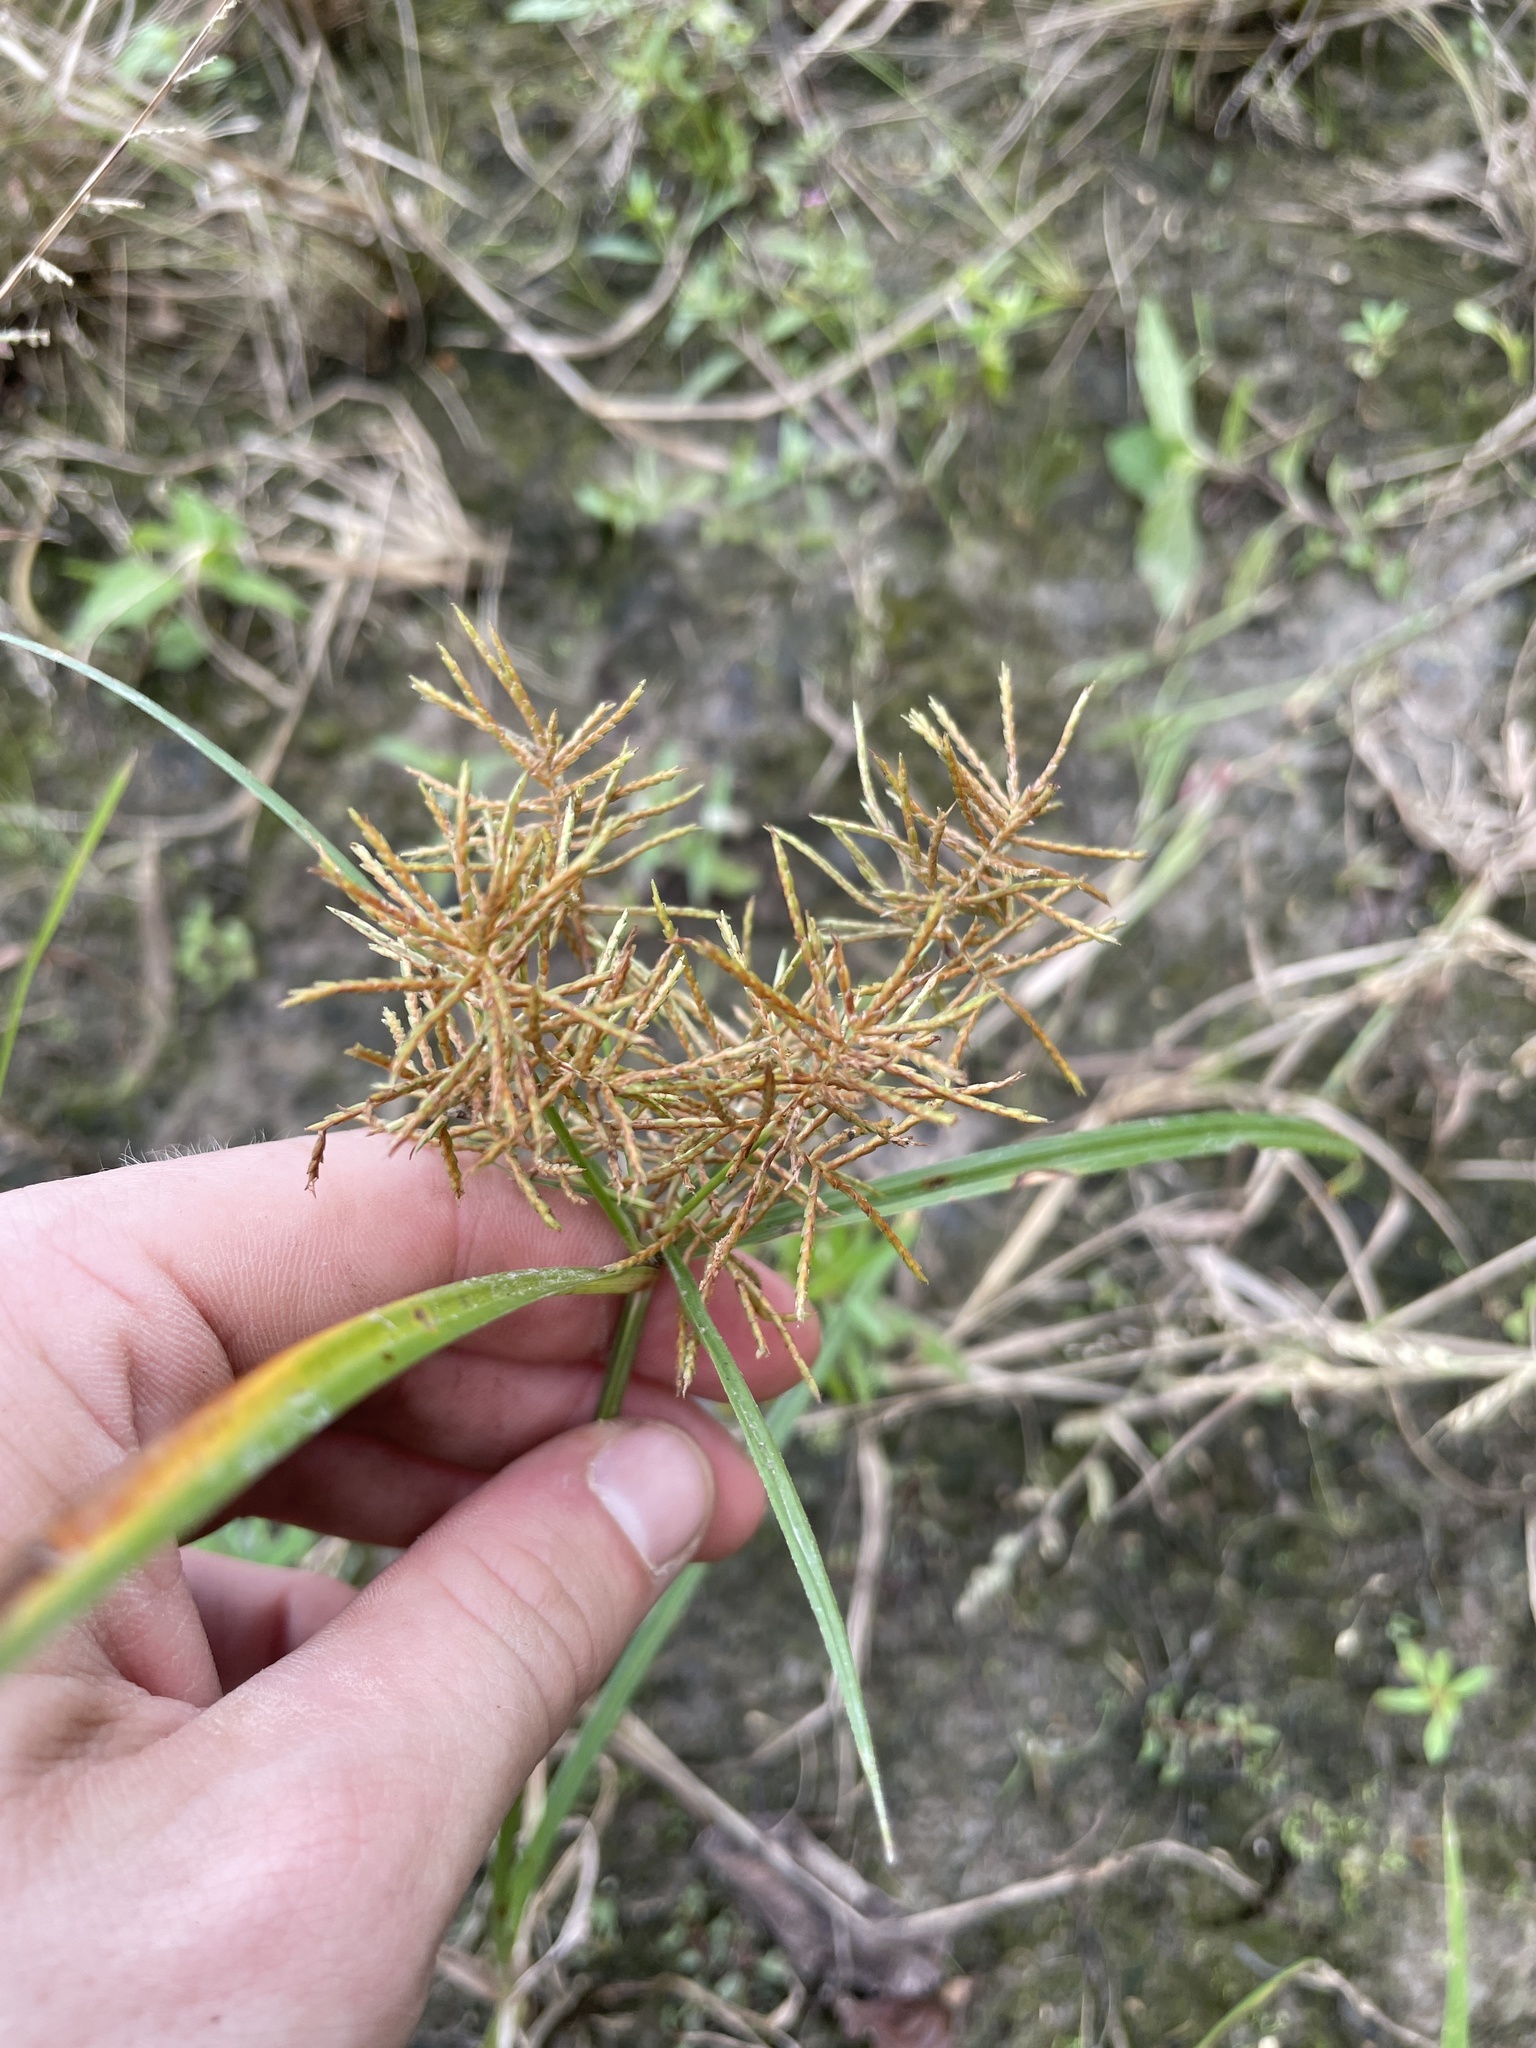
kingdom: Plantae
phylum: Tracheophyta
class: Liliopsida
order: Poales
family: Cyperaceae
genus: Cyperus
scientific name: Cyperus odoratus
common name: Fragrant flatsedge
